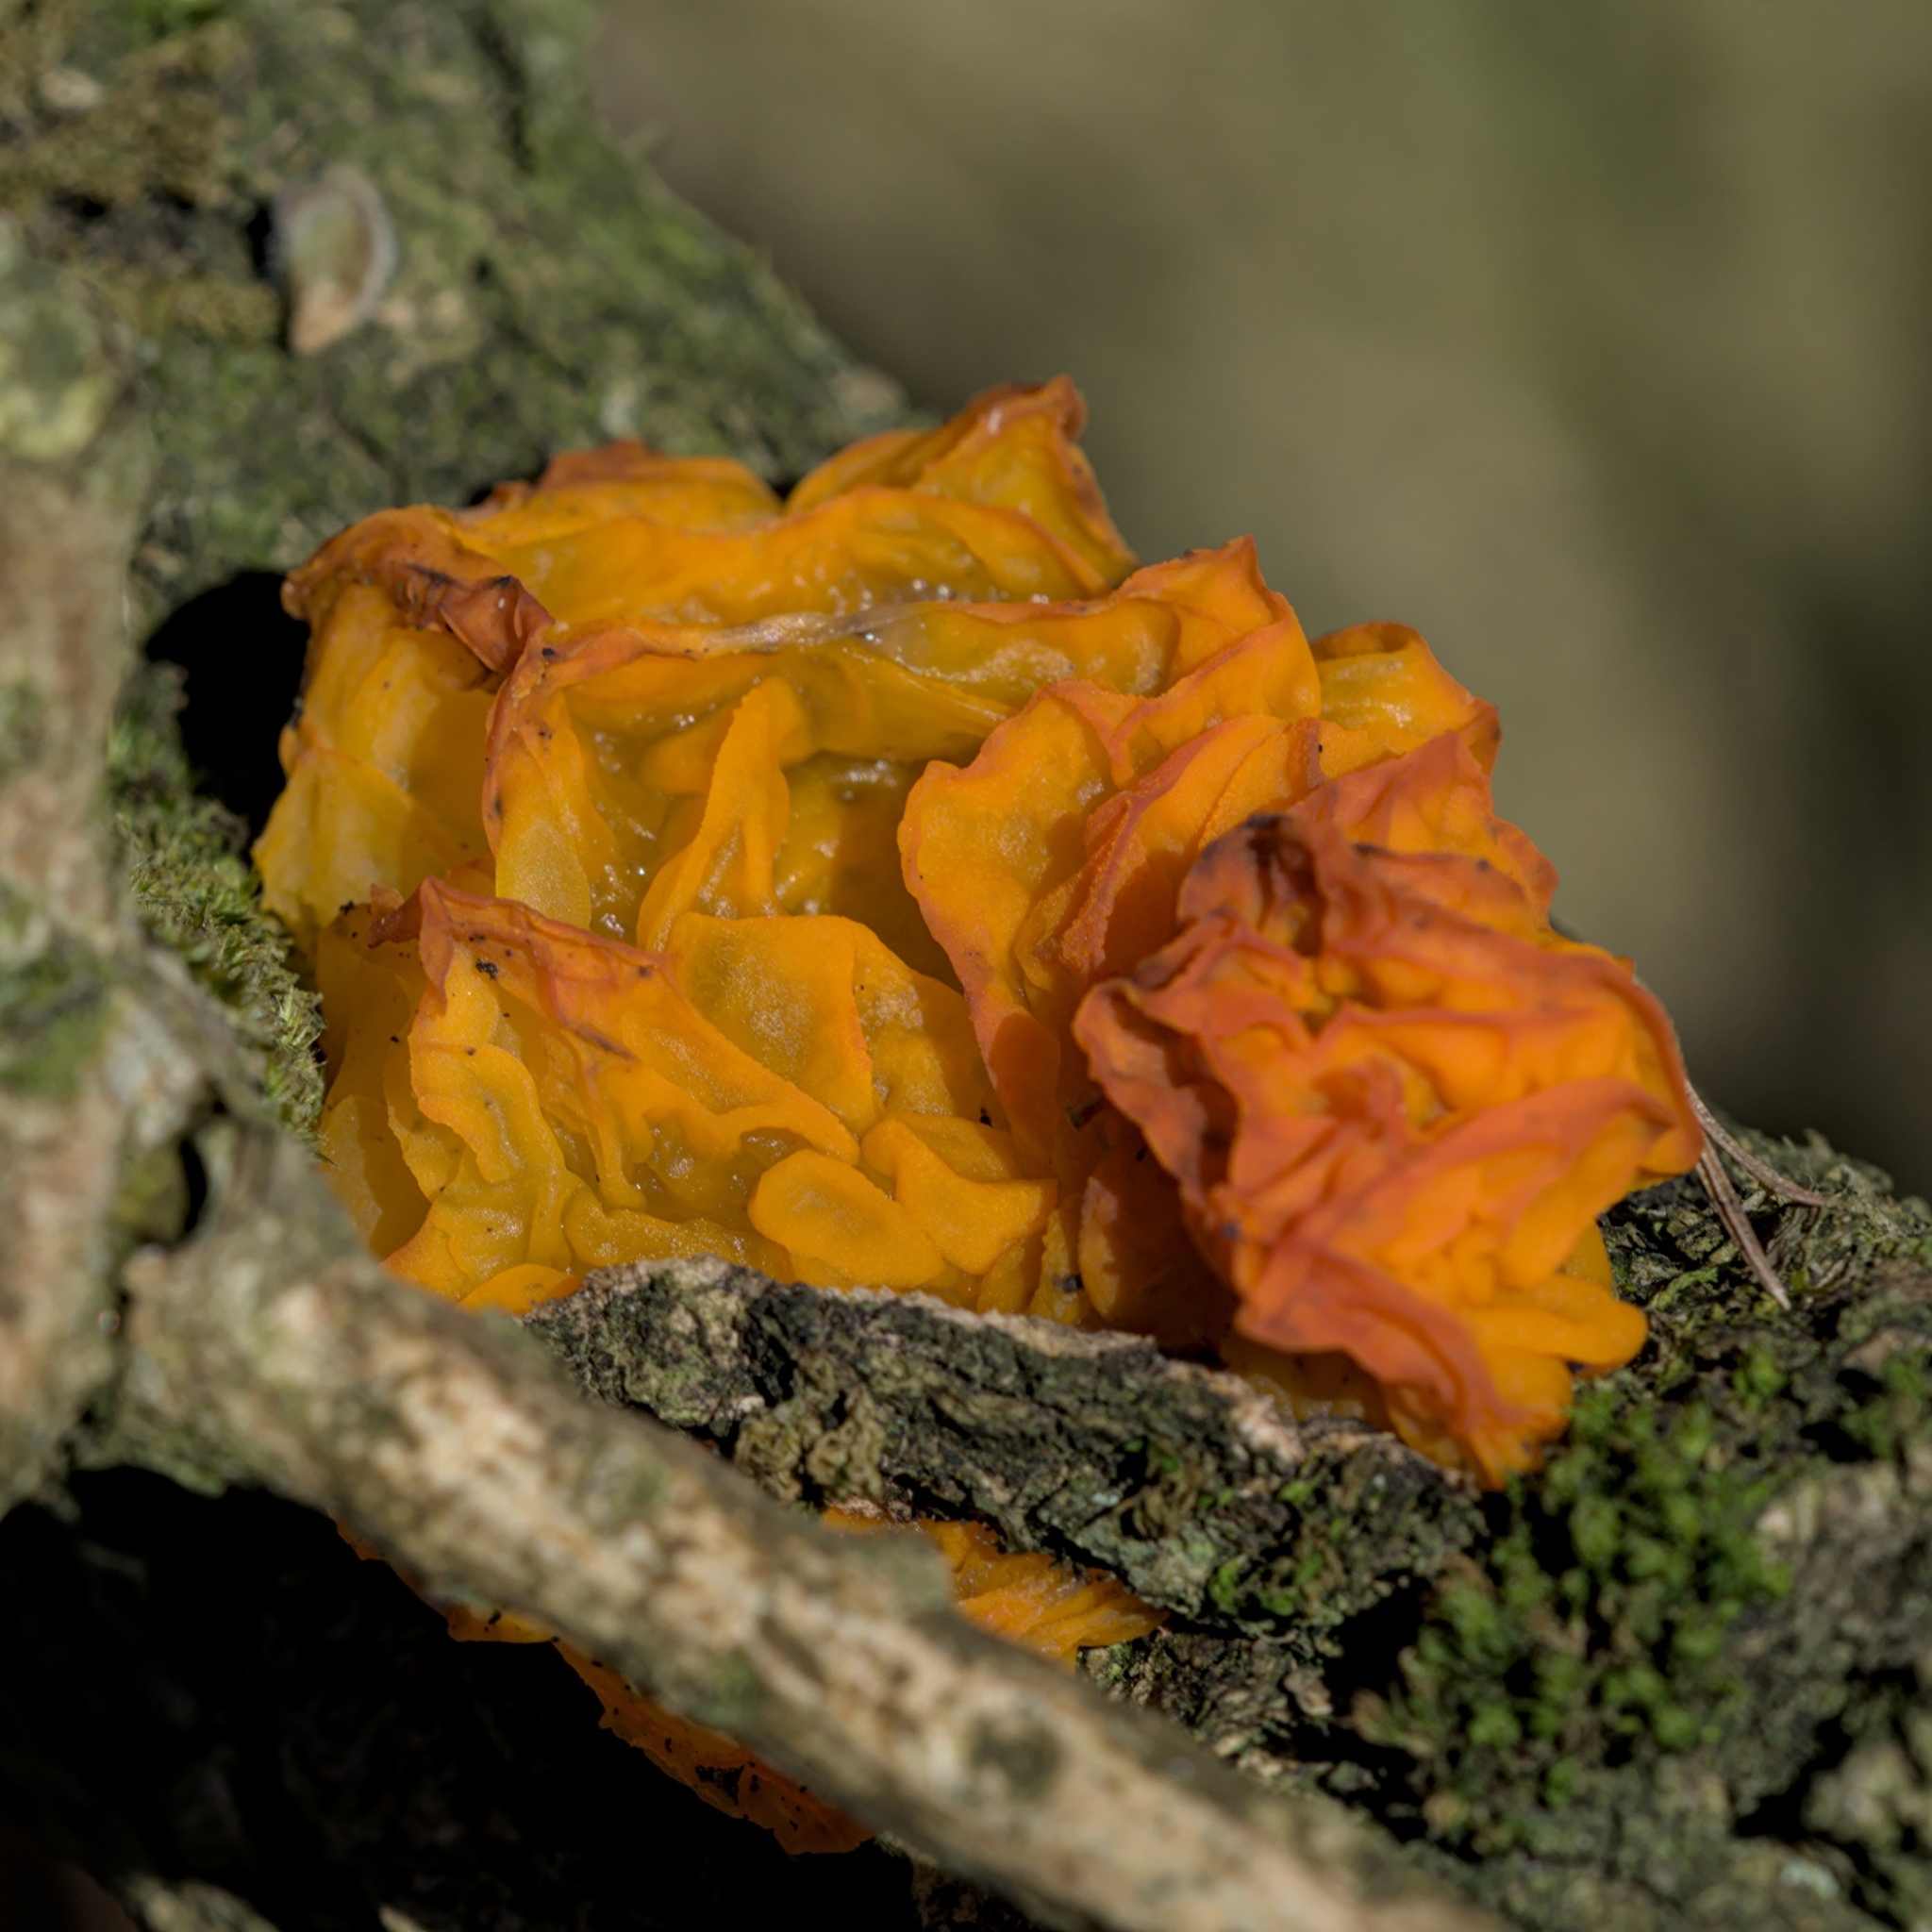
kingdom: Fungi
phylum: Basidiomycota
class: Tremellomycetes
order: Tremellales
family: Tremellaceae
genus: Tremella
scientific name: Tremella mesenterica
